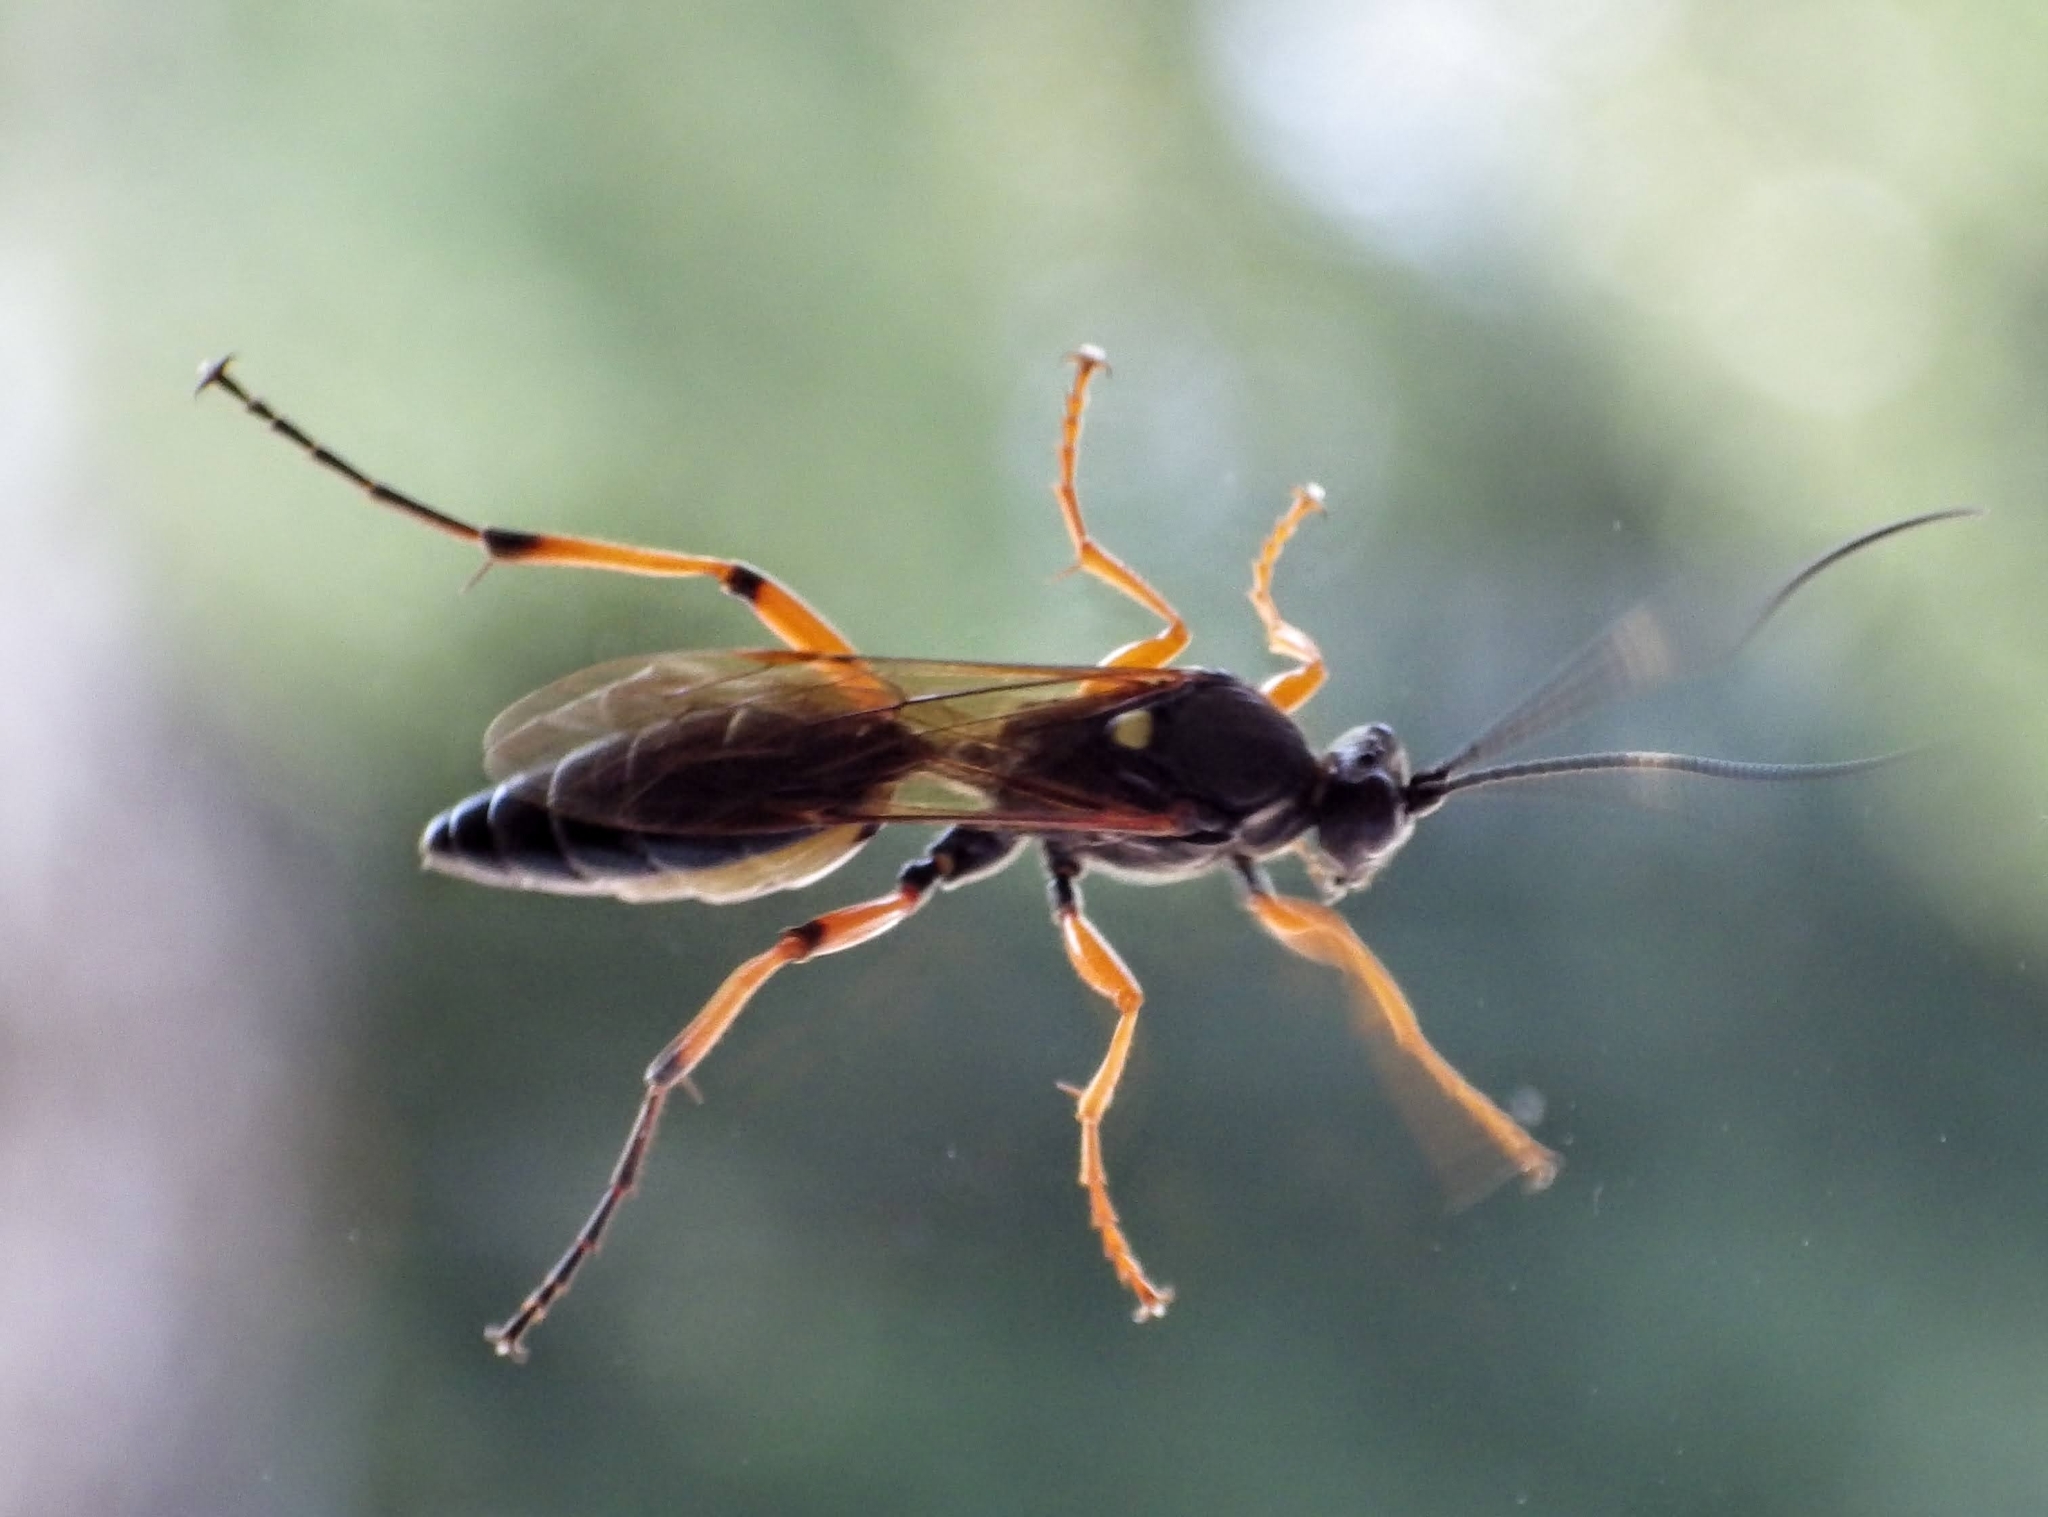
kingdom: Animalia
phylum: Arthropoda
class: Insecta
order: Hymenoptera
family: Ichneumonidae
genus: Diphyus
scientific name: Diphyus quadripunctorius
